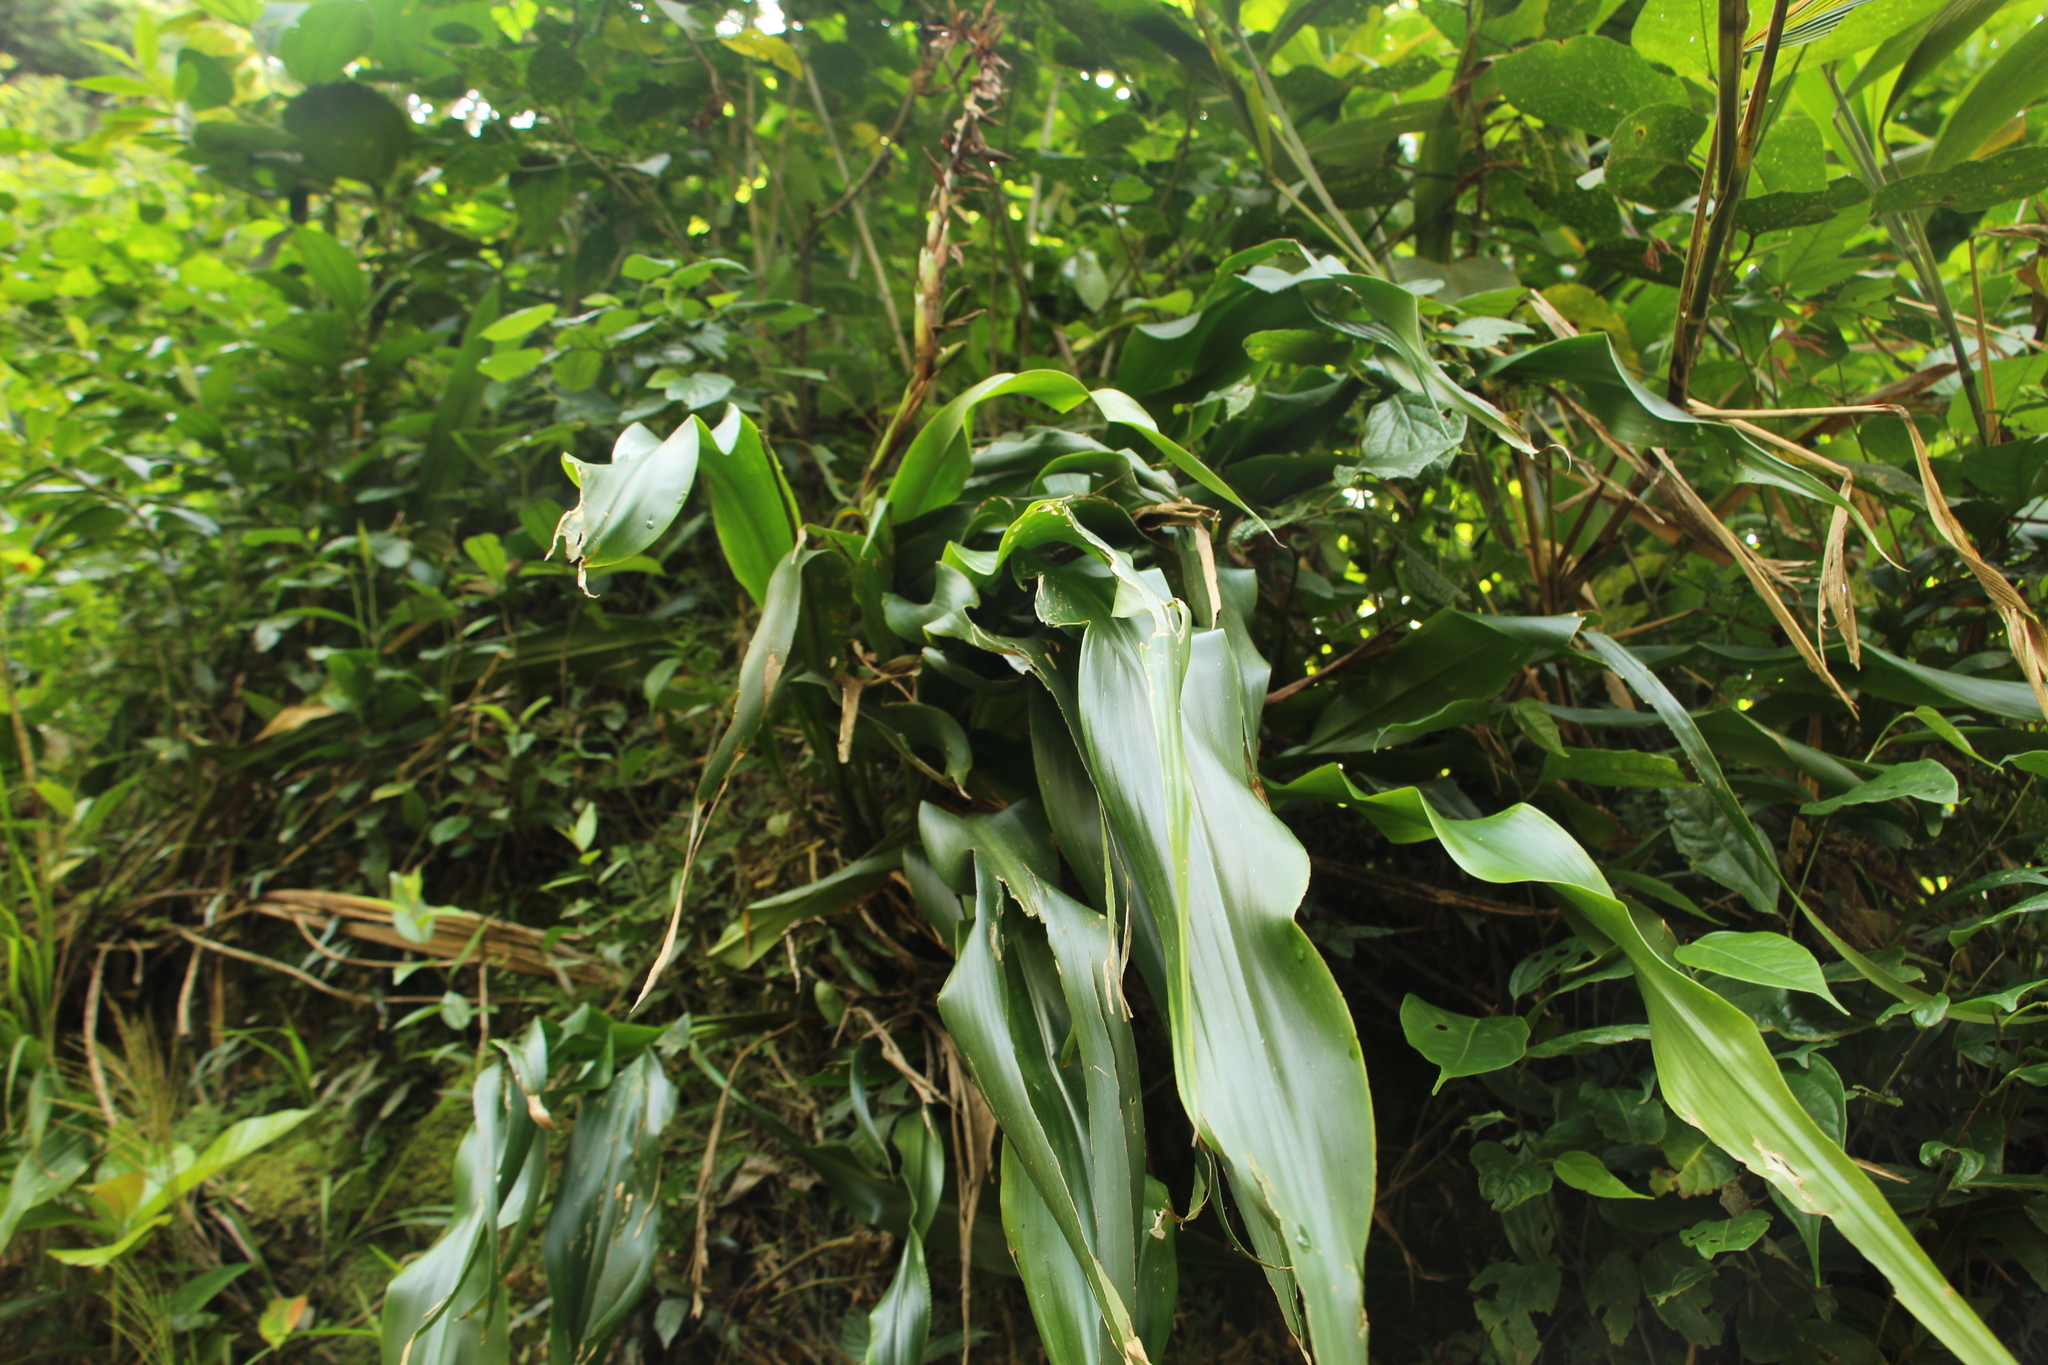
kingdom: Plantae
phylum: Tracheophyta
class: Liliopsida
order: Poales
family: Bromeliaceae
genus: Pitcairnia
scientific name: Pitcairnia maidifolia
